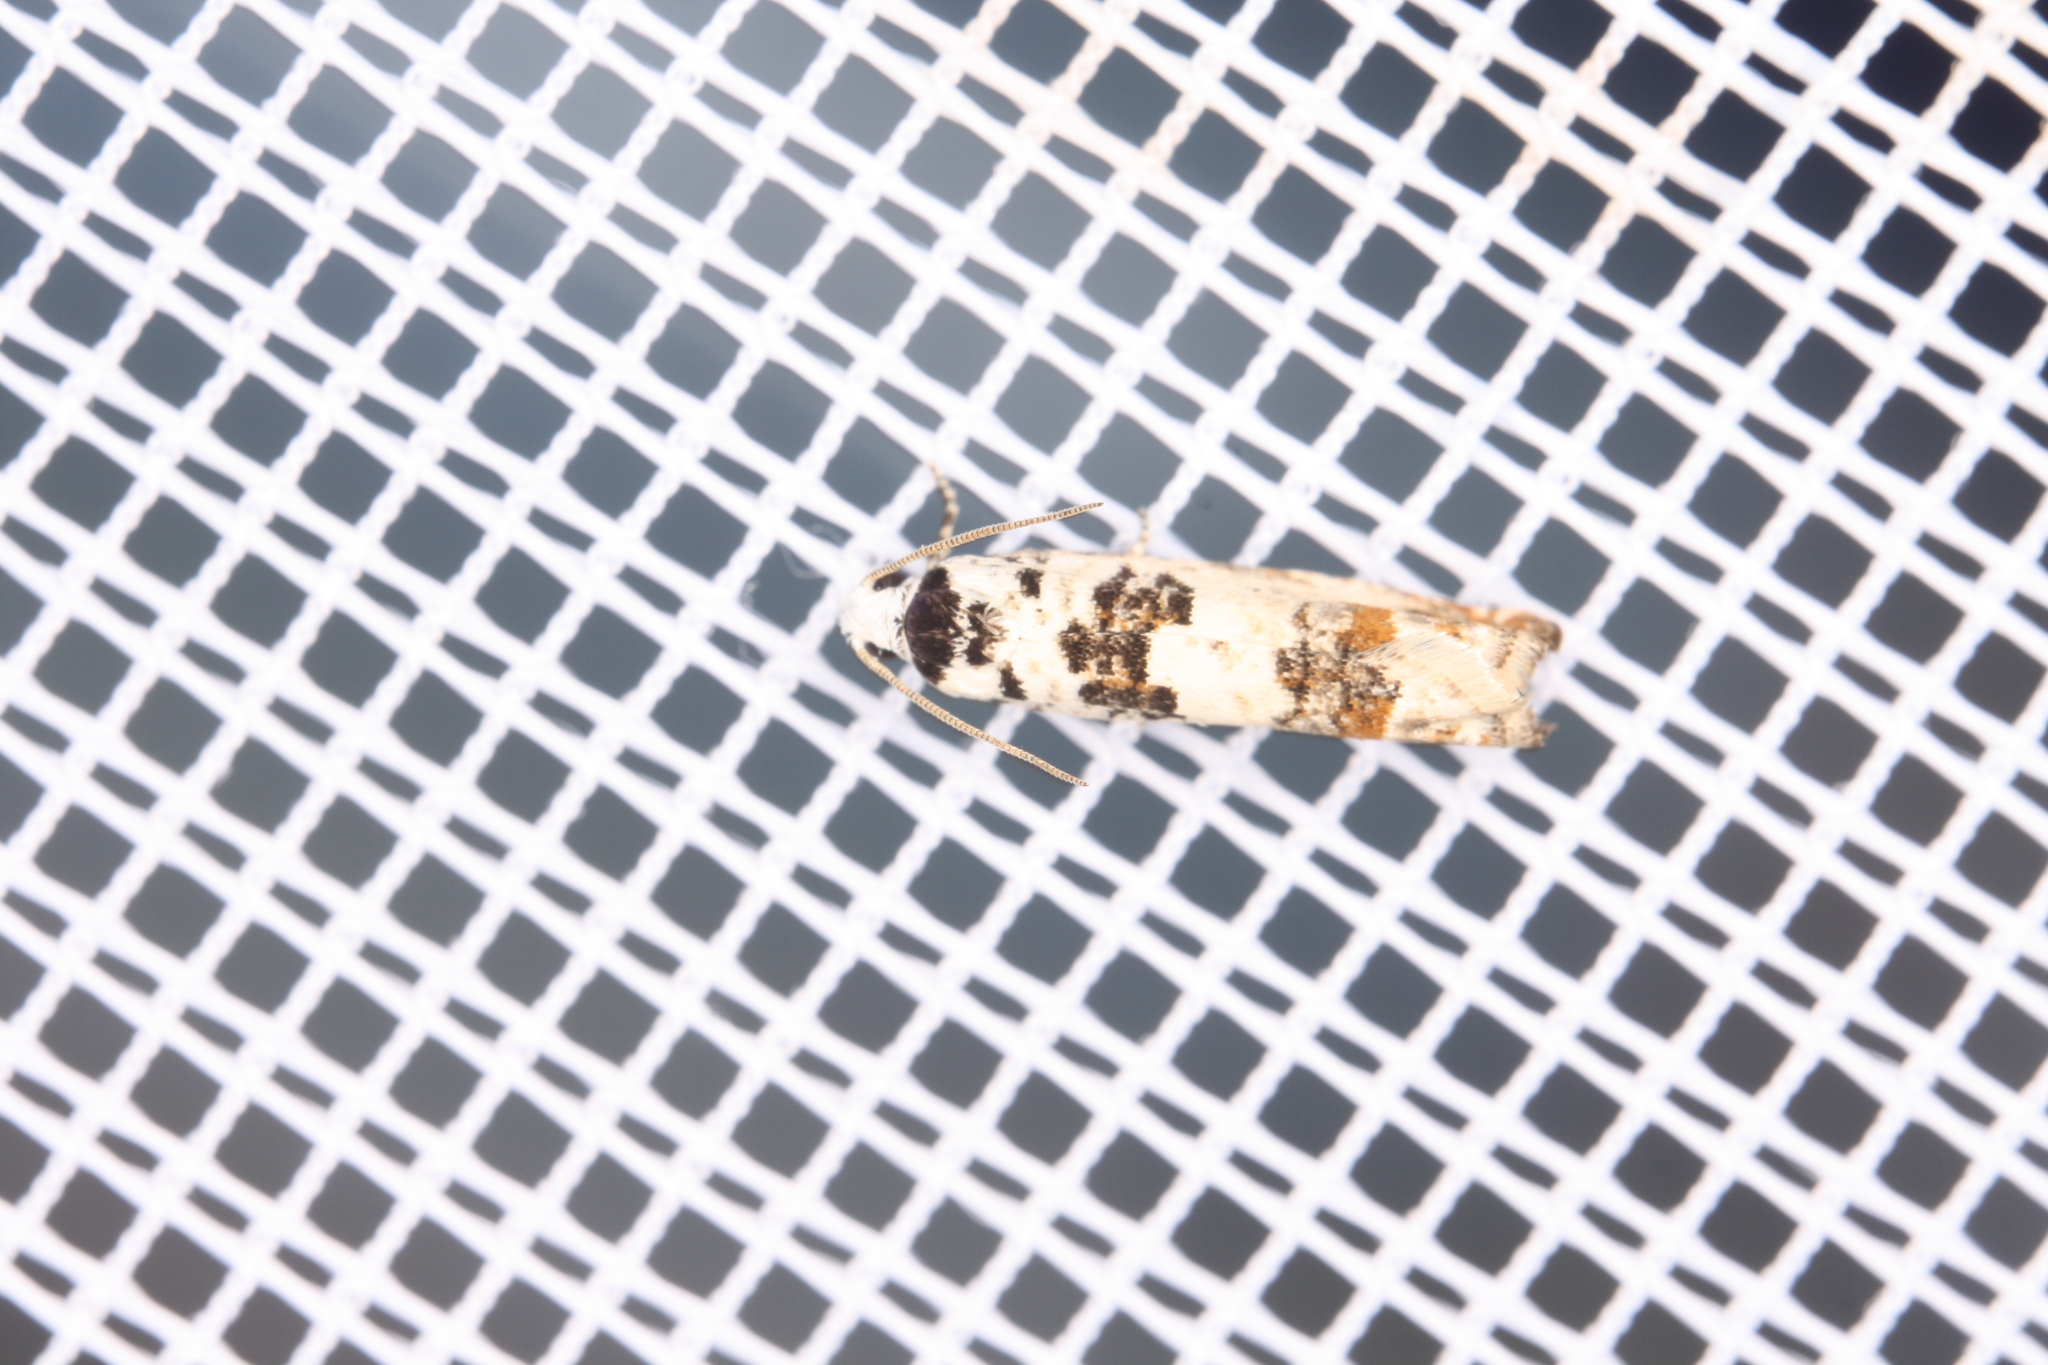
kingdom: Animalia
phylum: Arthropoda
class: Insecta
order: Lepidoptera
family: Tortricidae
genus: Eucosma
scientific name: Eucosma campoliliana
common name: Marbled bell
